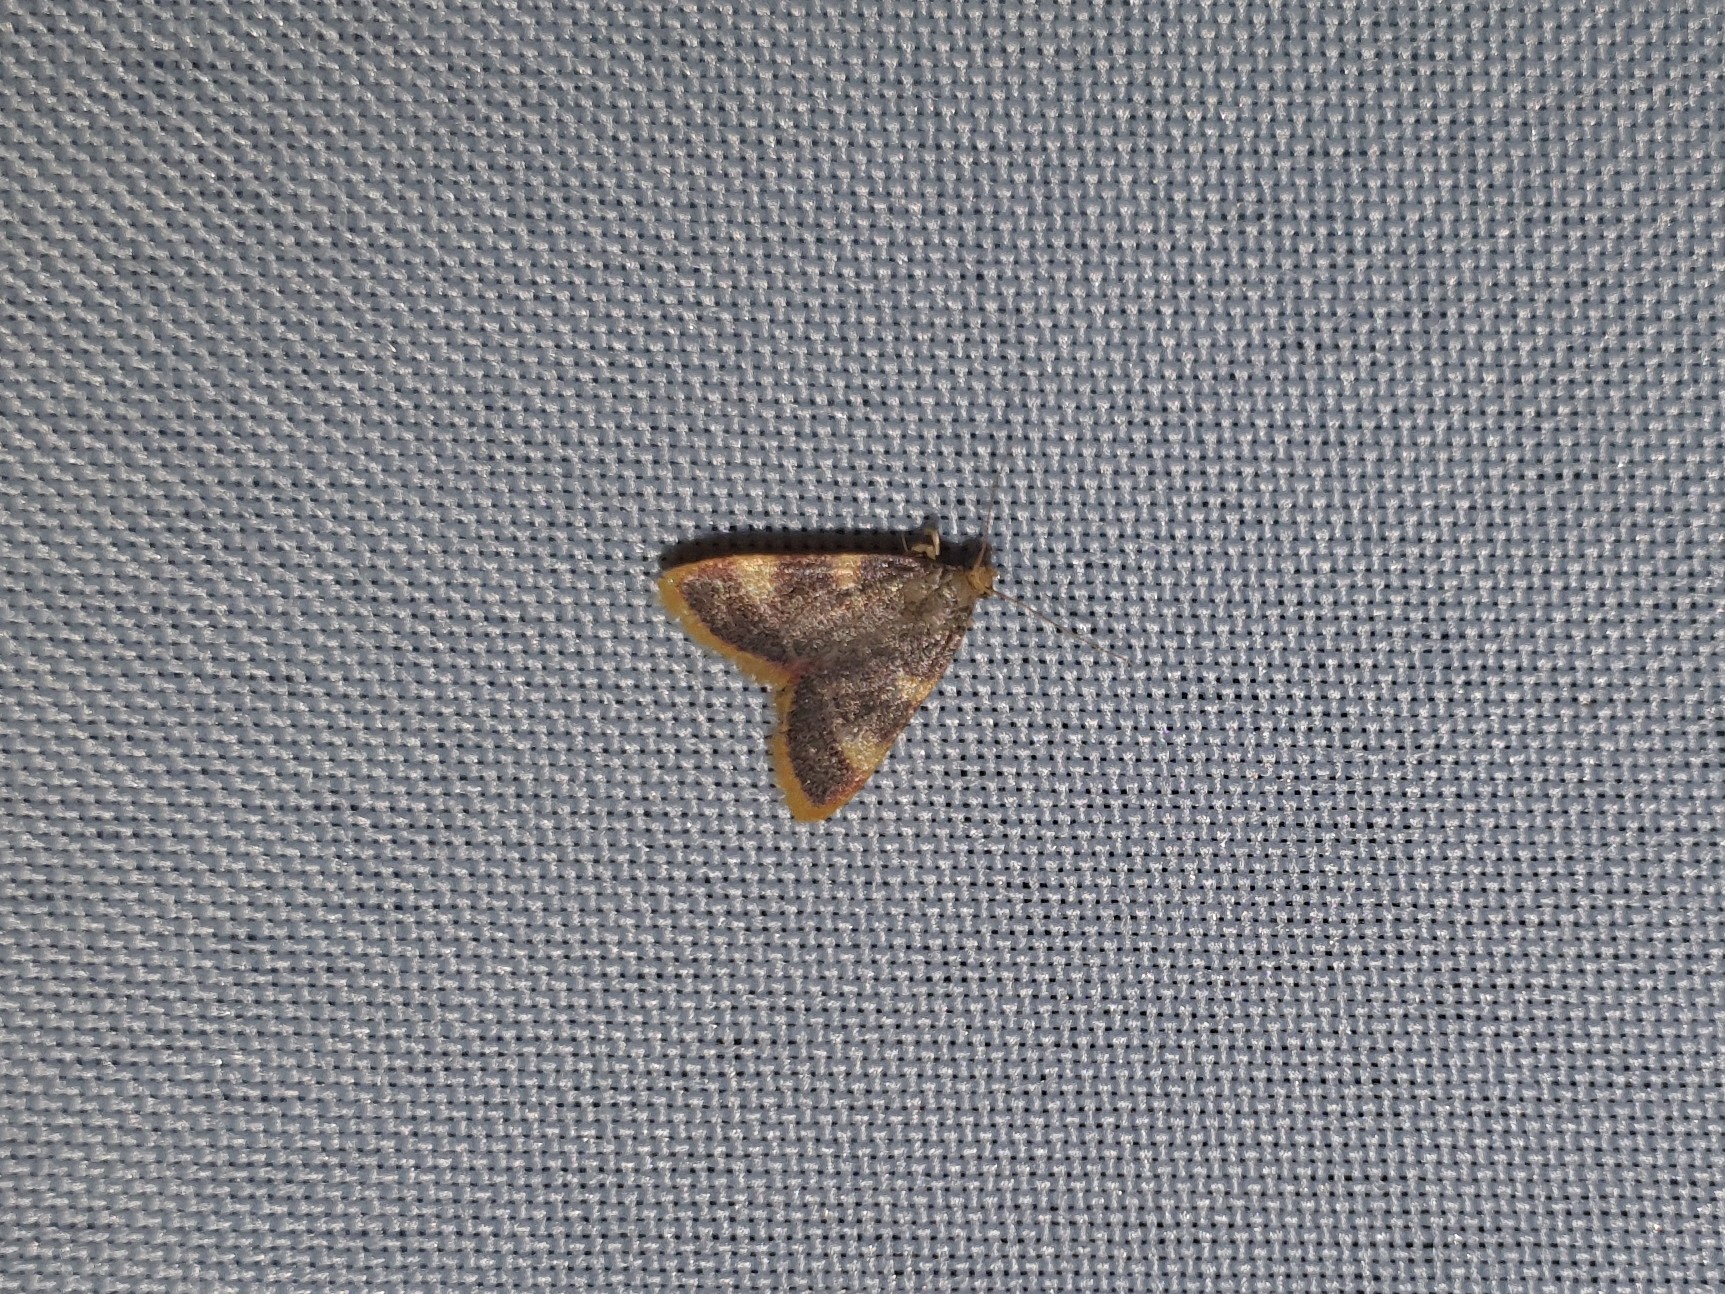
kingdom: Animalia
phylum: Arthropoda
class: Insecta
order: Lepidoptera
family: Pyralidae
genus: Hypsopygia
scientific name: Hypsopygia costalis
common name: Gold triangle
